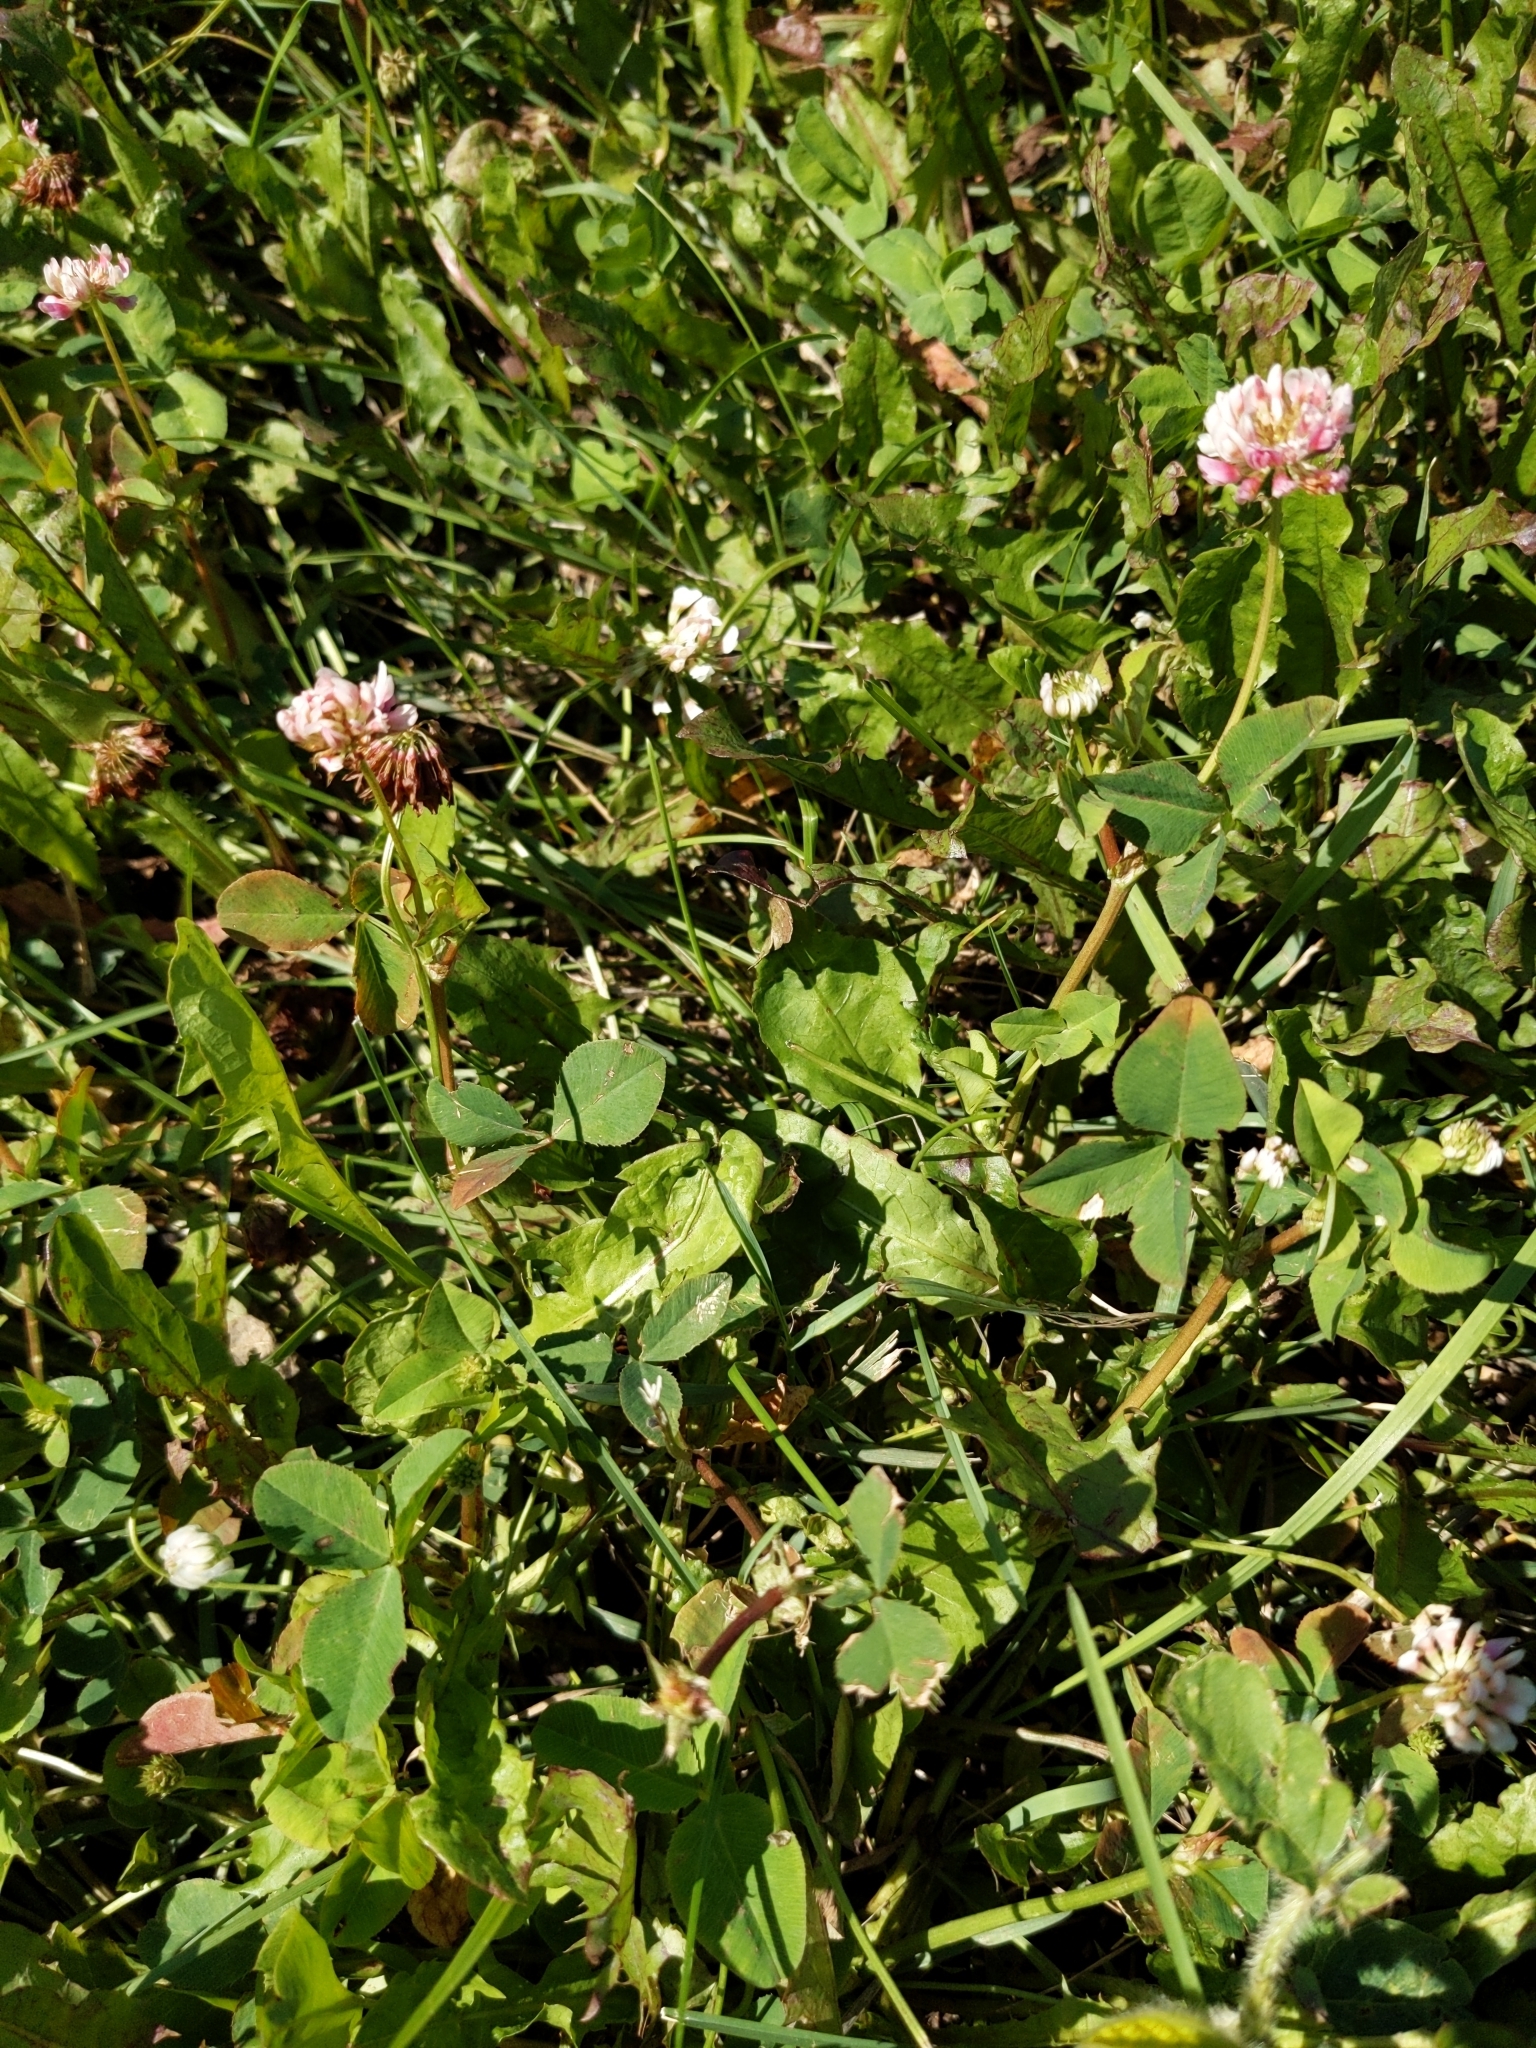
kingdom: Plantae
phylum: Tracheophyta
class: Magnoliopsida
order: Fabales
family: Fabaceae
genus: Trifolium
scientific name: Trifolium hybridum
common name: Alsike clover
